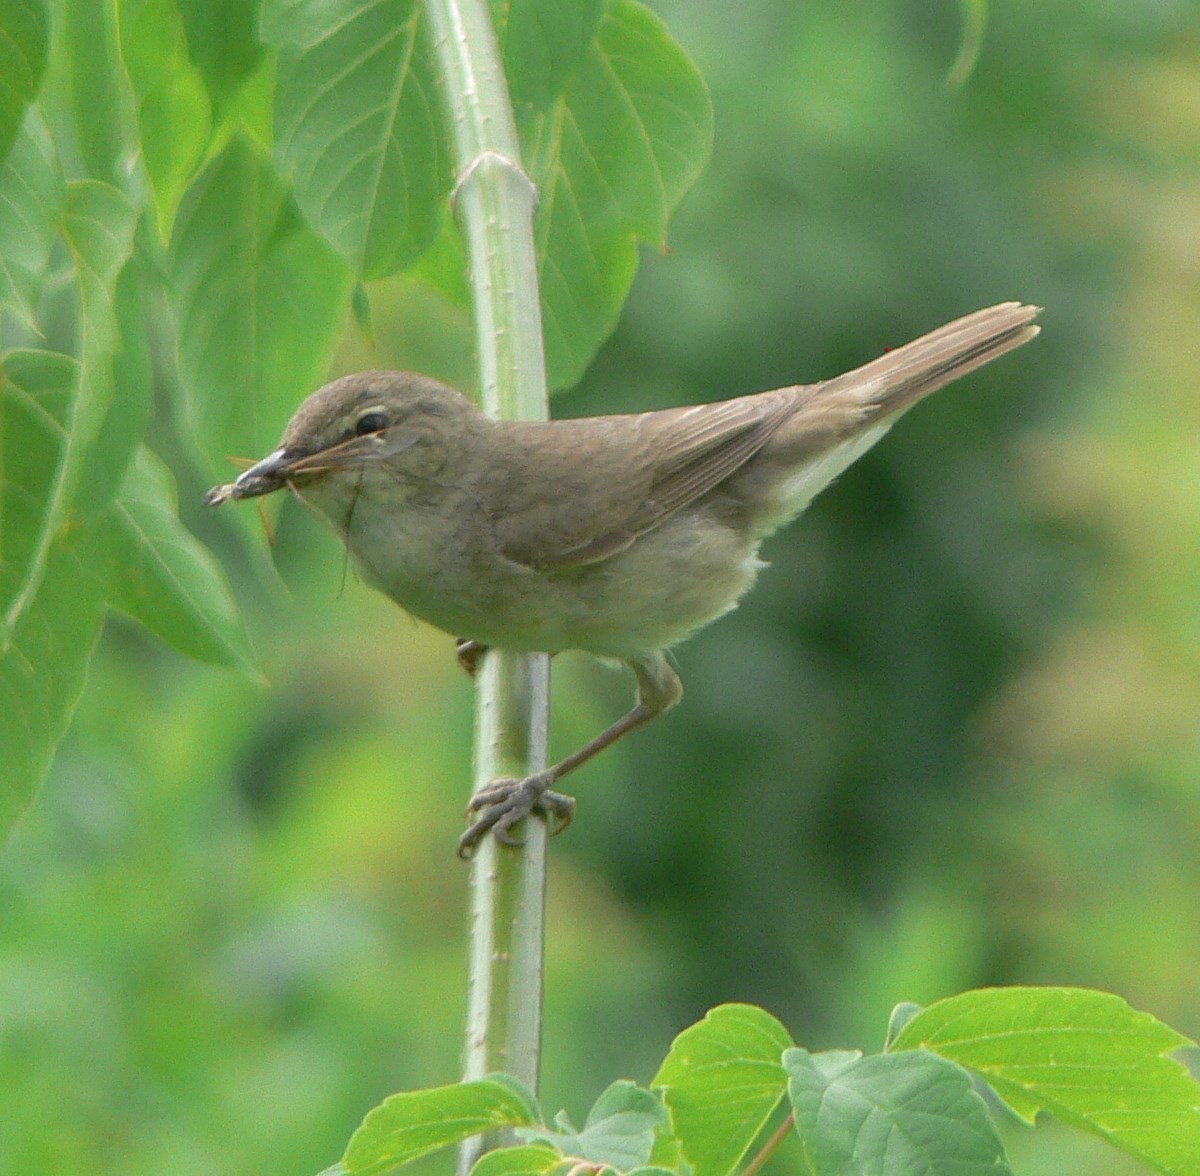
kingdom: Animalia
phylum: Chordata
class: Aves
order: Passeriformes
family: Sylviidae
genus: Sylvia
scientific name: Sylvia borin
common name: Garden warbler
